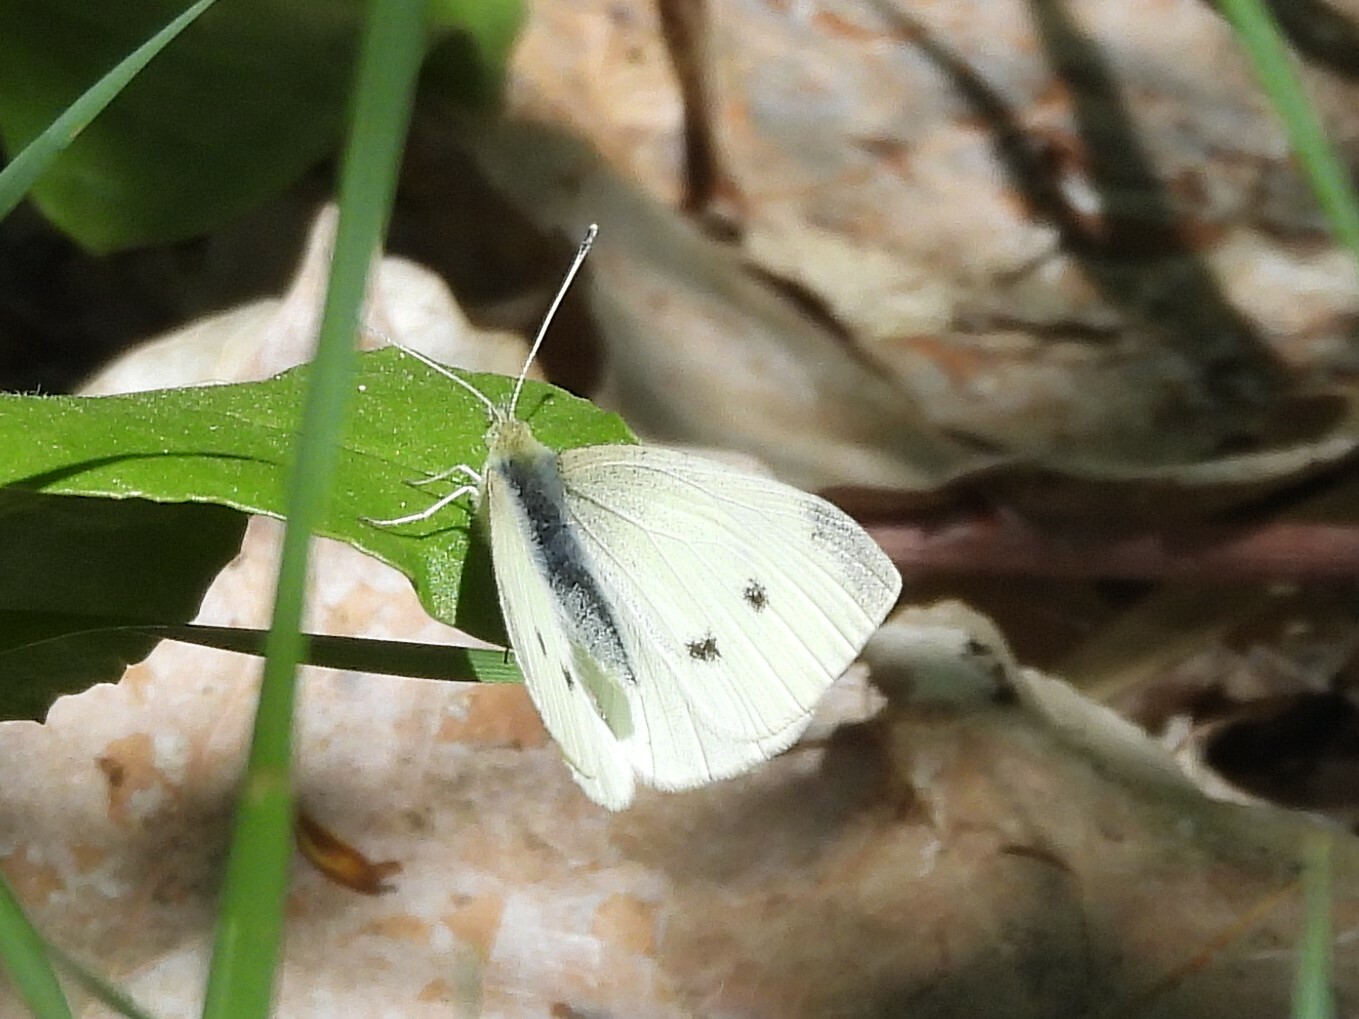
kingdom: Animalia
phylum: Arthropoda
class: Insecta
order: Lepidoptera
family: Pieridae
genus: Pieris
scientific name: Pieris rapae
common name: Small white
